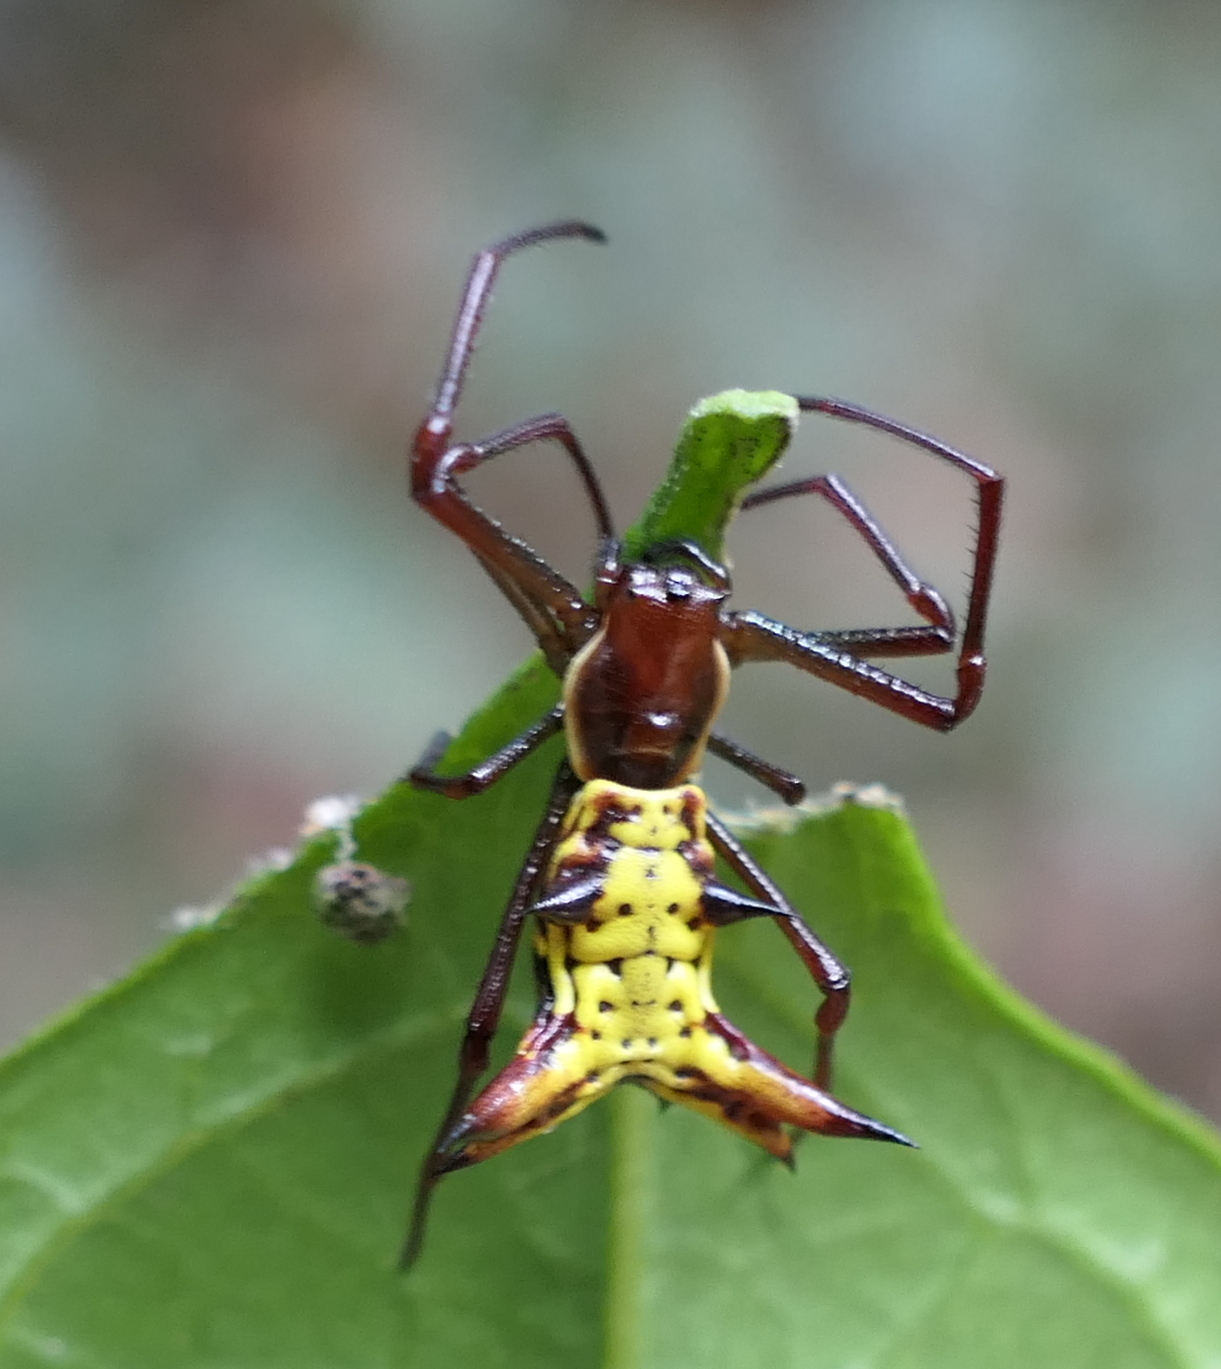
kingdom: Animalia
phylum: Arthropoda
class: Arachnida
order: Araneae
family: Araneidae
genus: Micrathena
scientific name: Micrathena fissispina
